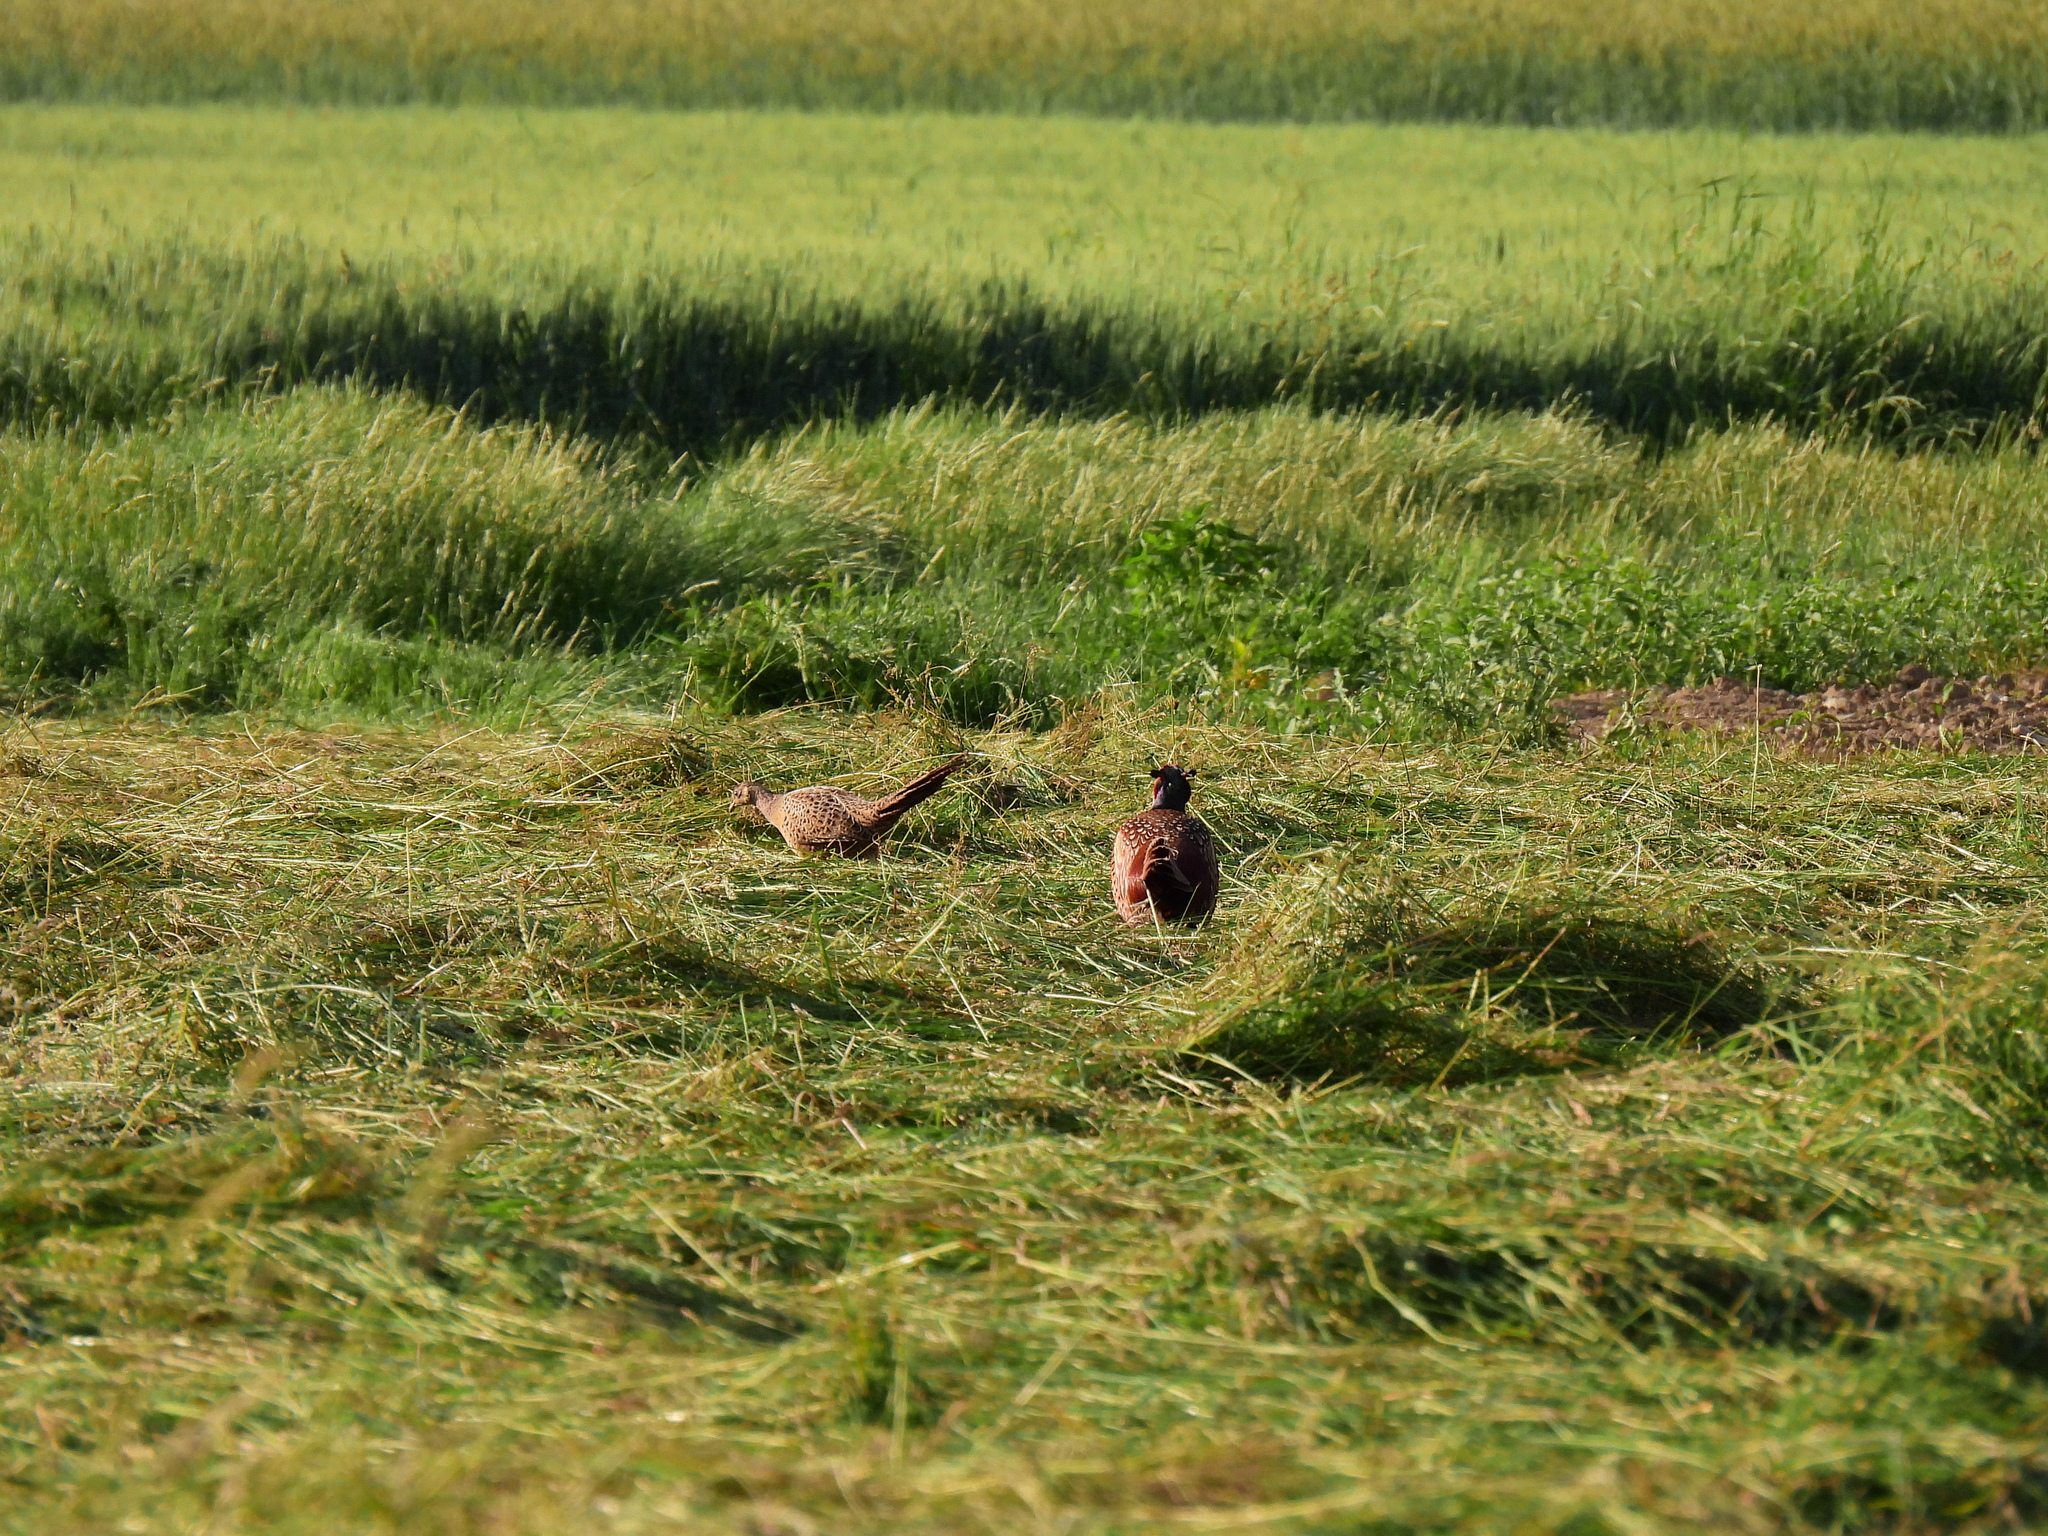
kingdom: Animalia
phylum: Chordata
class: Aves
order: Galliformes
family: Phasianidae
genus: Phasianus
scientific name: Phasianus colchicus
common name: Common pheasant
